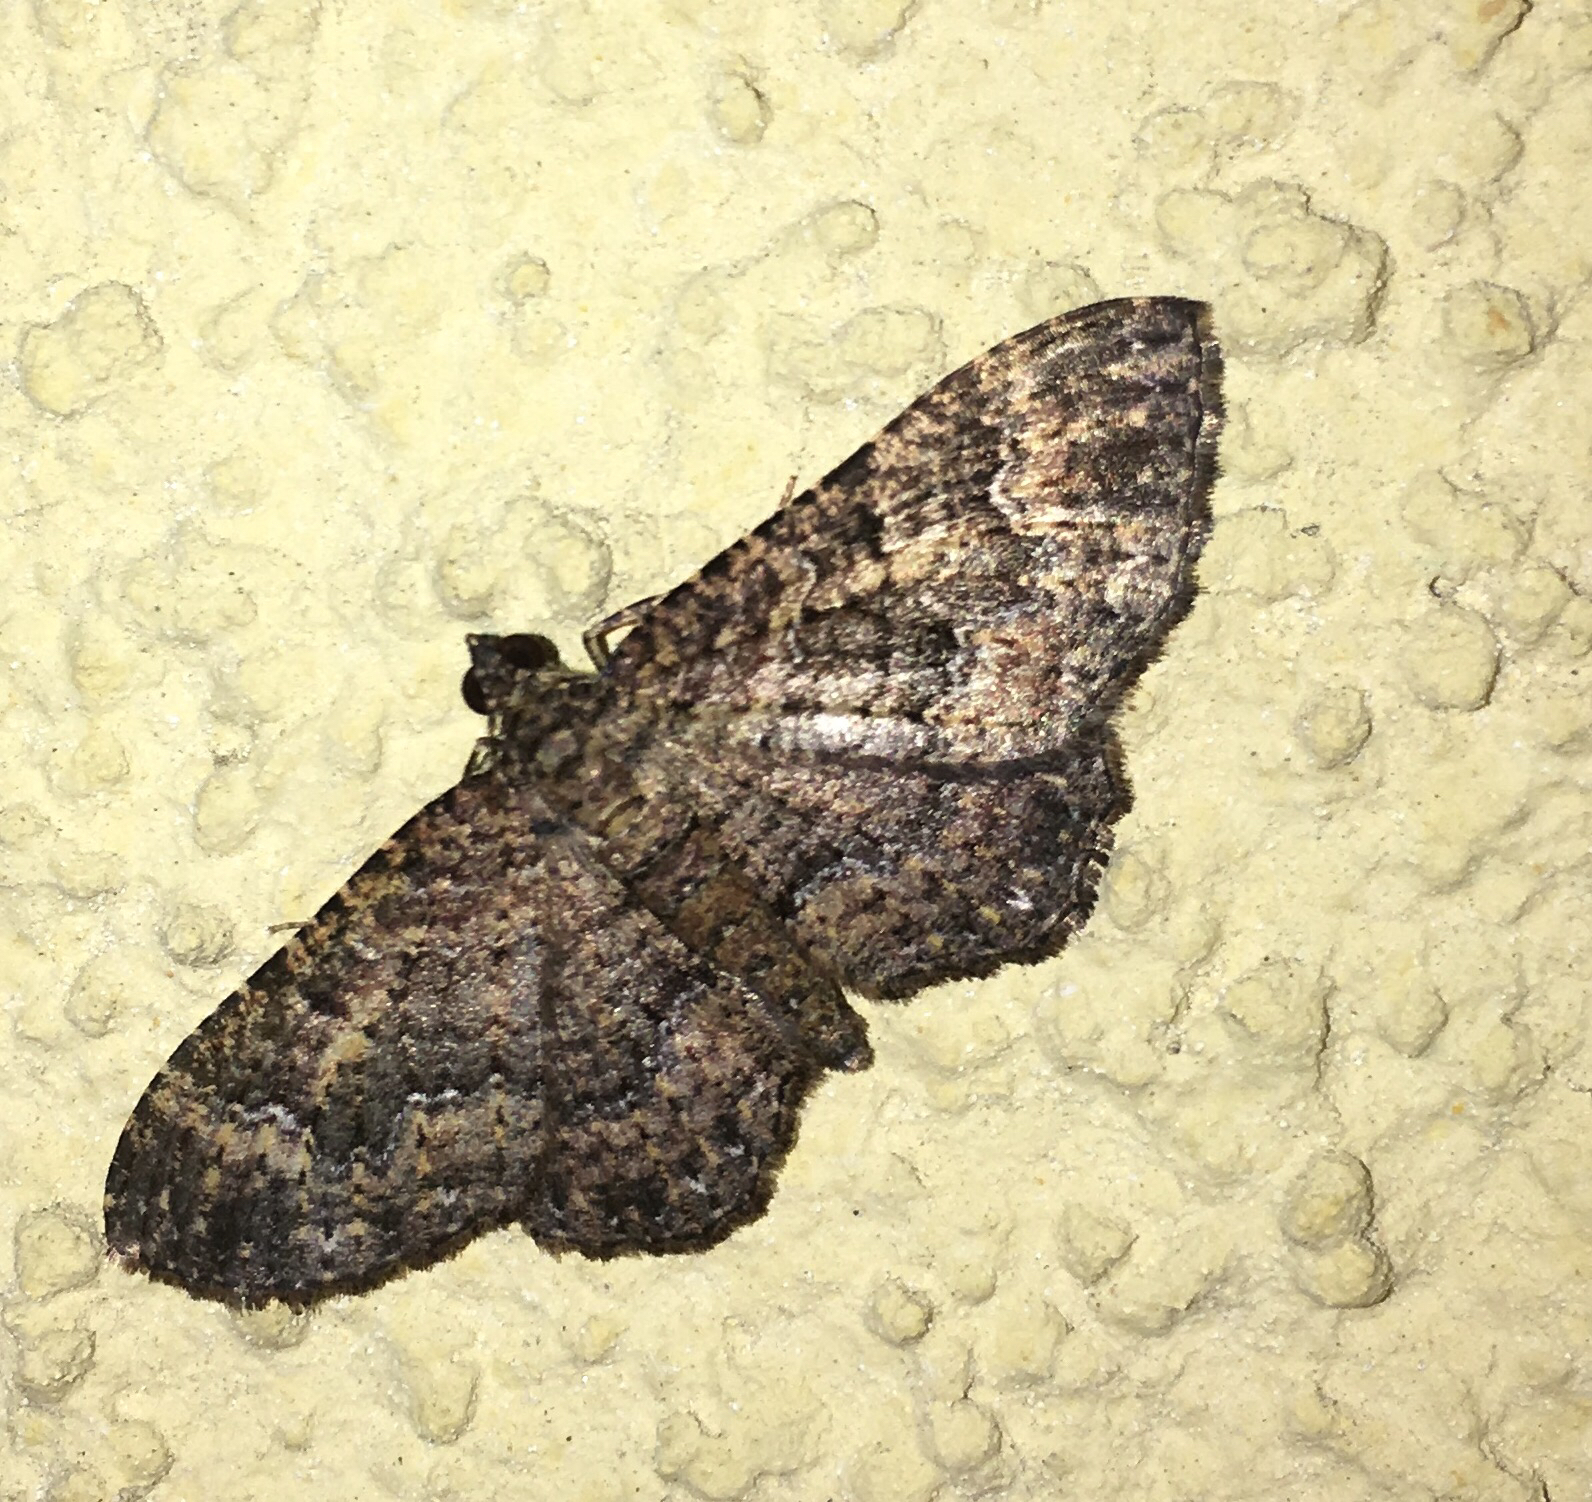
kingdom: Animalia
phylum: Arthropoda
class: Insecta
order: Lepidoptera
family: Geometridae
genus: Disclisioprocta
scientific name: Disclisioprocta stellata
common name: Somber carpet
